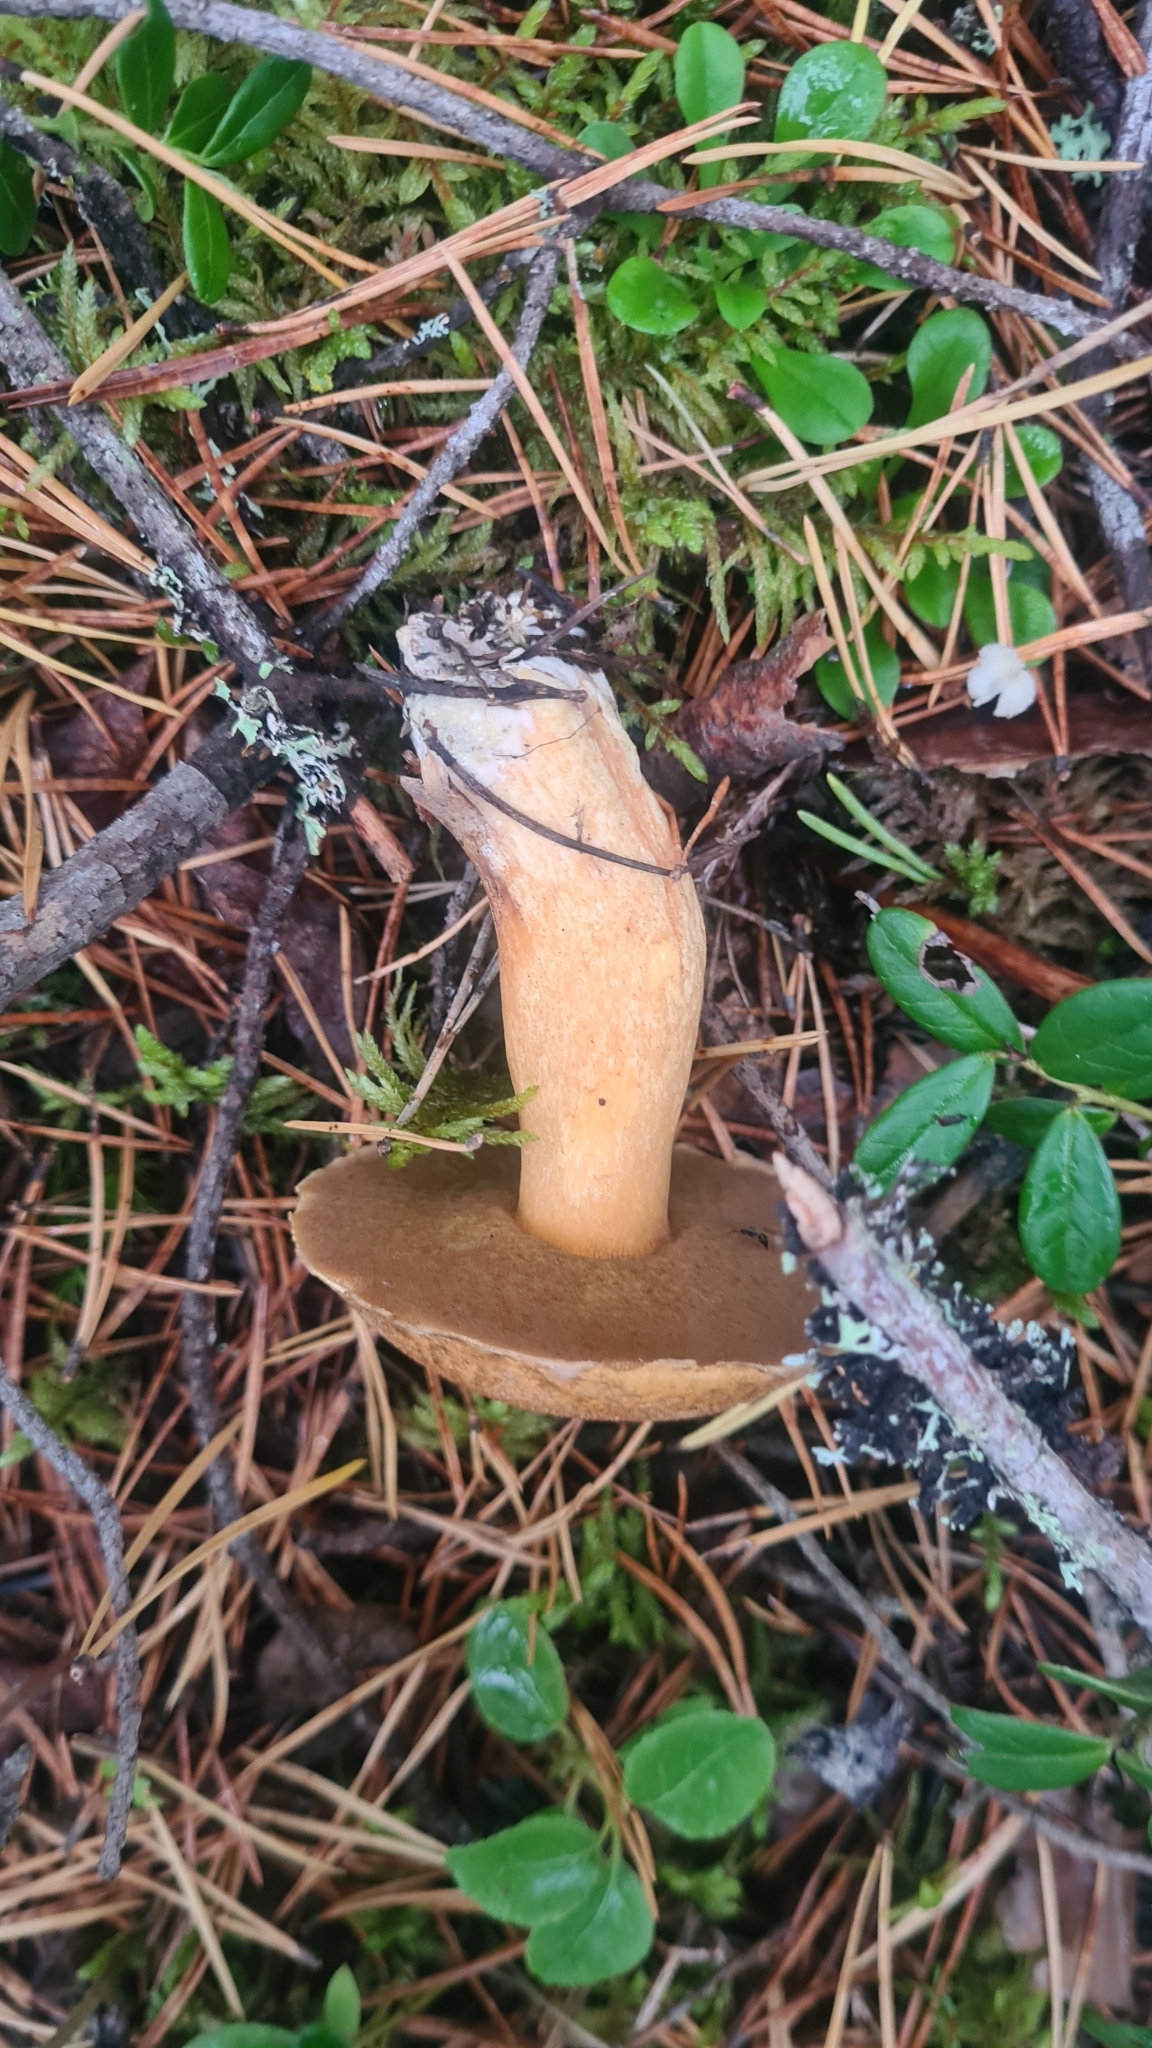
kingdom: Fungi
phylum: Basidiomycota
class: Agaricomycetes
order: Boletales
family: Suillaceae
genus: Suillus
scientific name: Suillus variegatus
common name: Velvet bolete
